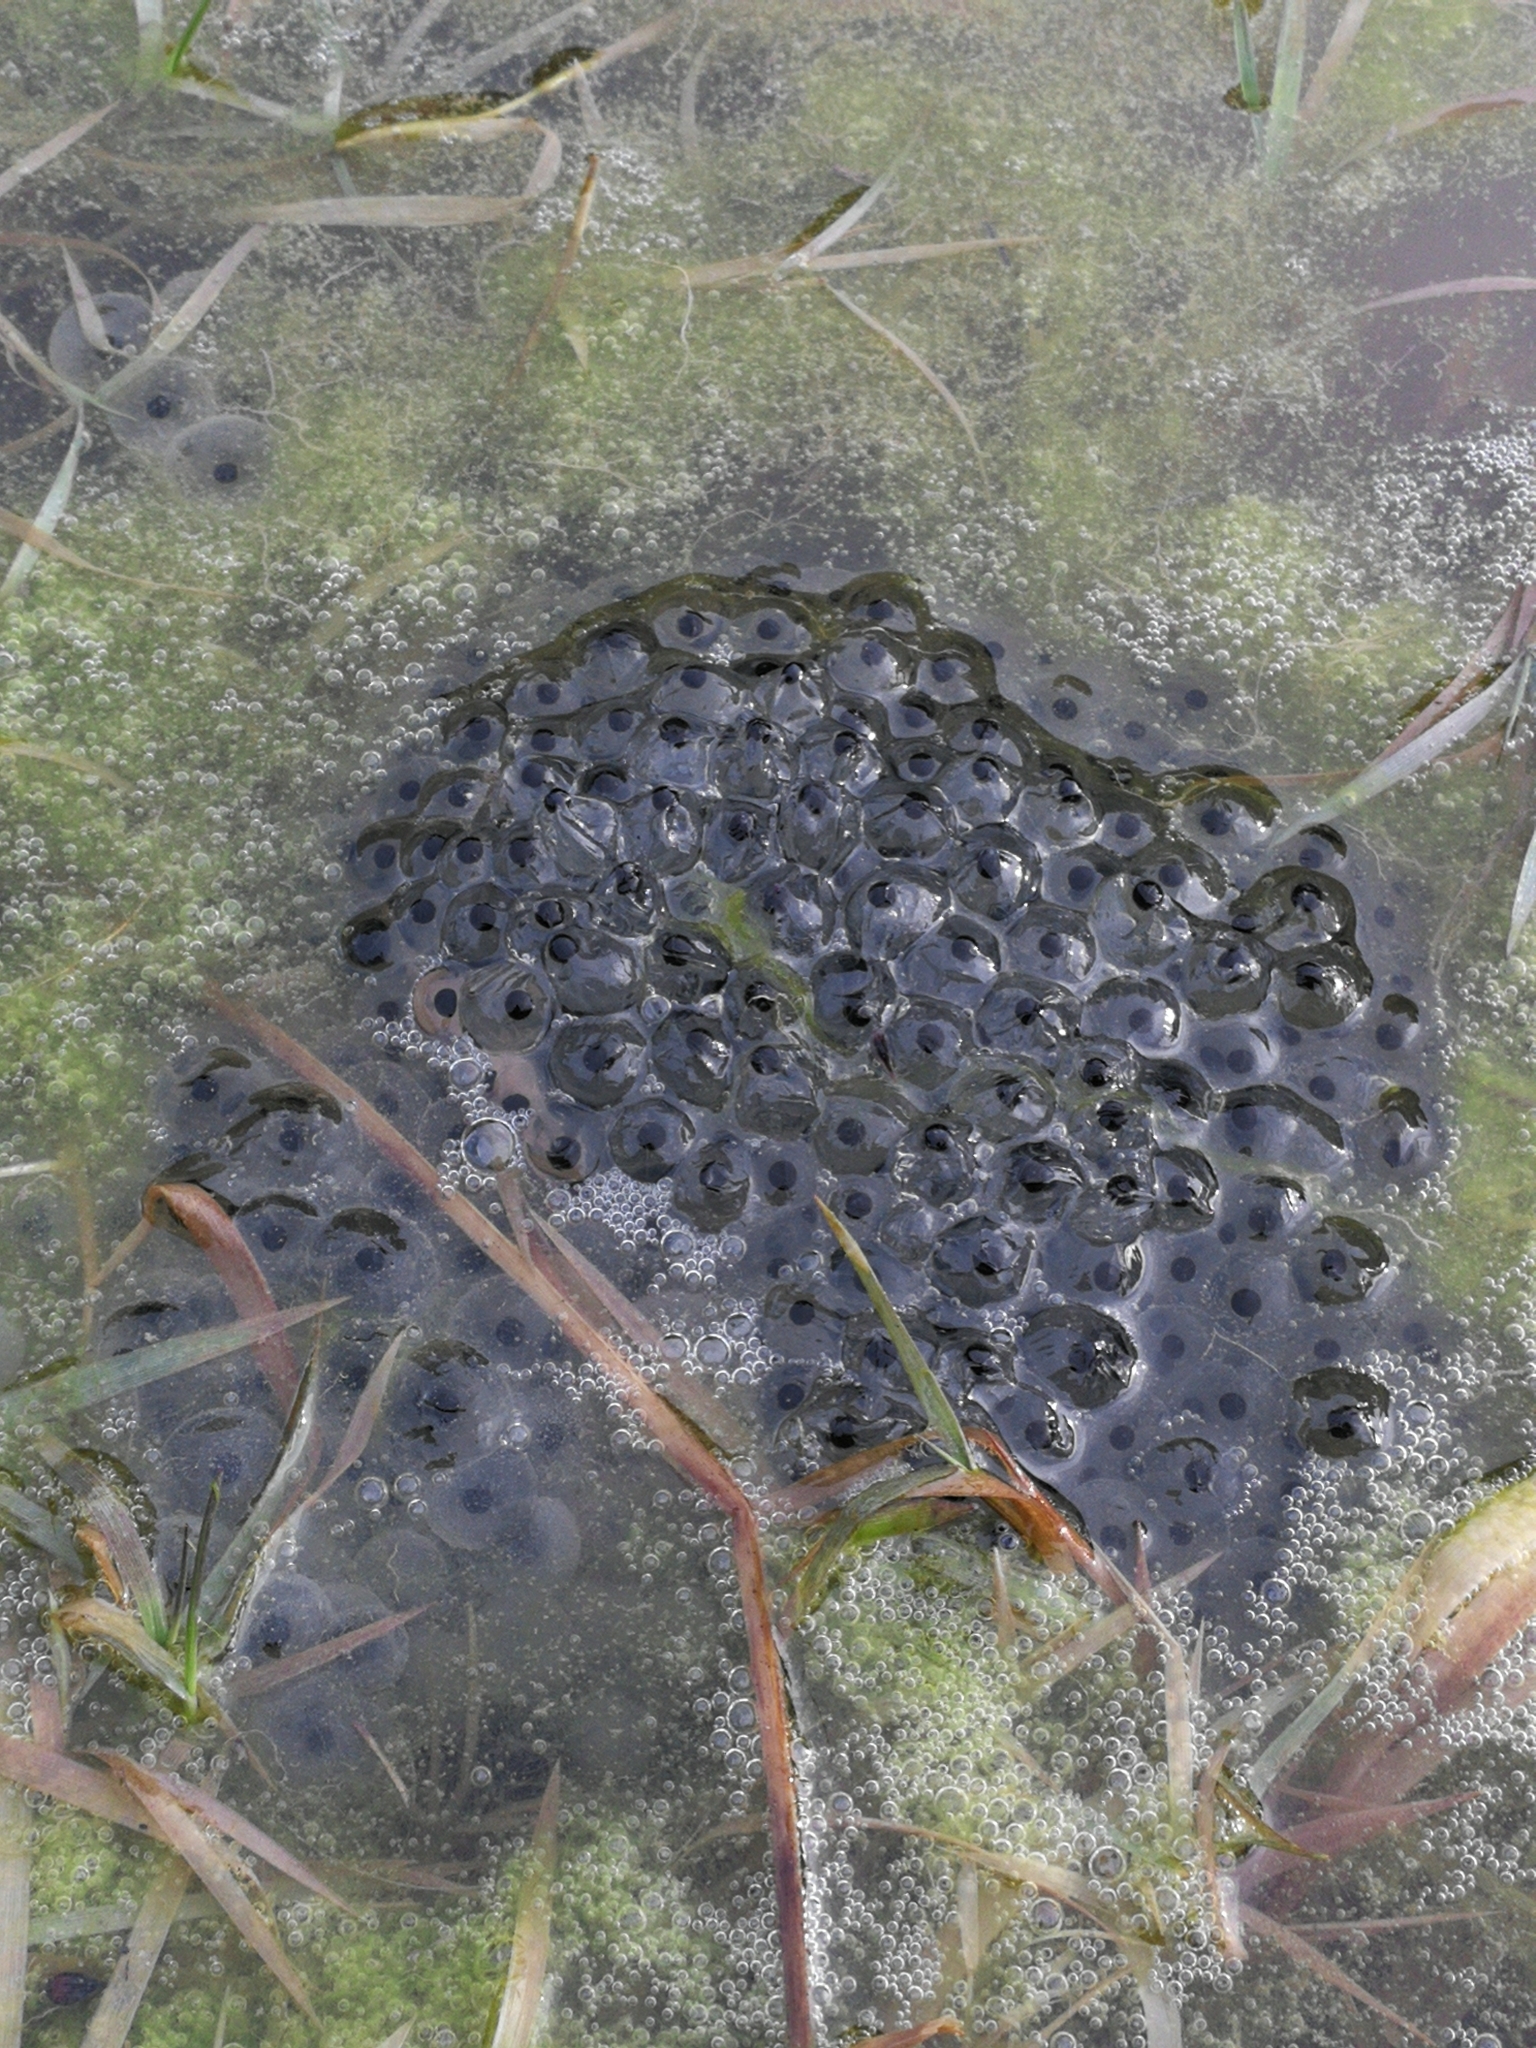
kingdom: Animalia
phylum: Chordata
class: Amphibia
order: Anura
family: Ranidae
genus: Rana
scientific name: Rana temporaria
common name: Common frog
